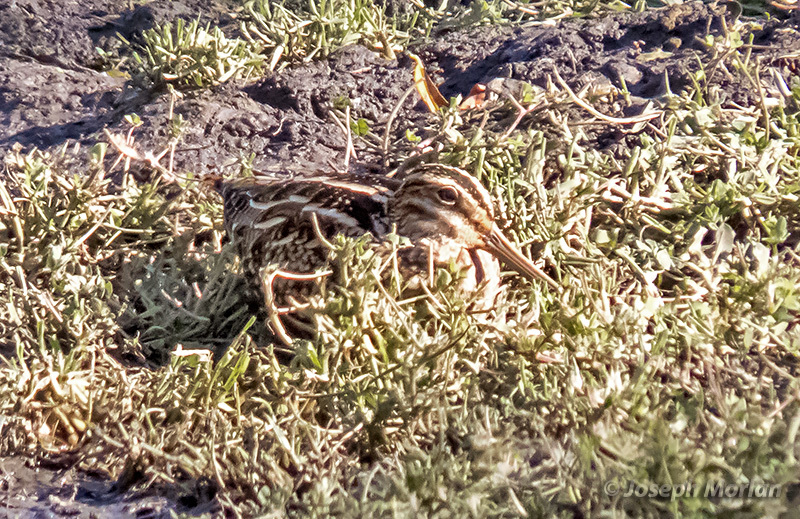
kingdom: Animalia
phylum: Chordata
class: Aves
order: Charadriiformes
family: Scolopacidae
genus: Gallinago
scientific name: Gallinago delicata
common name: Wilson's snipe
